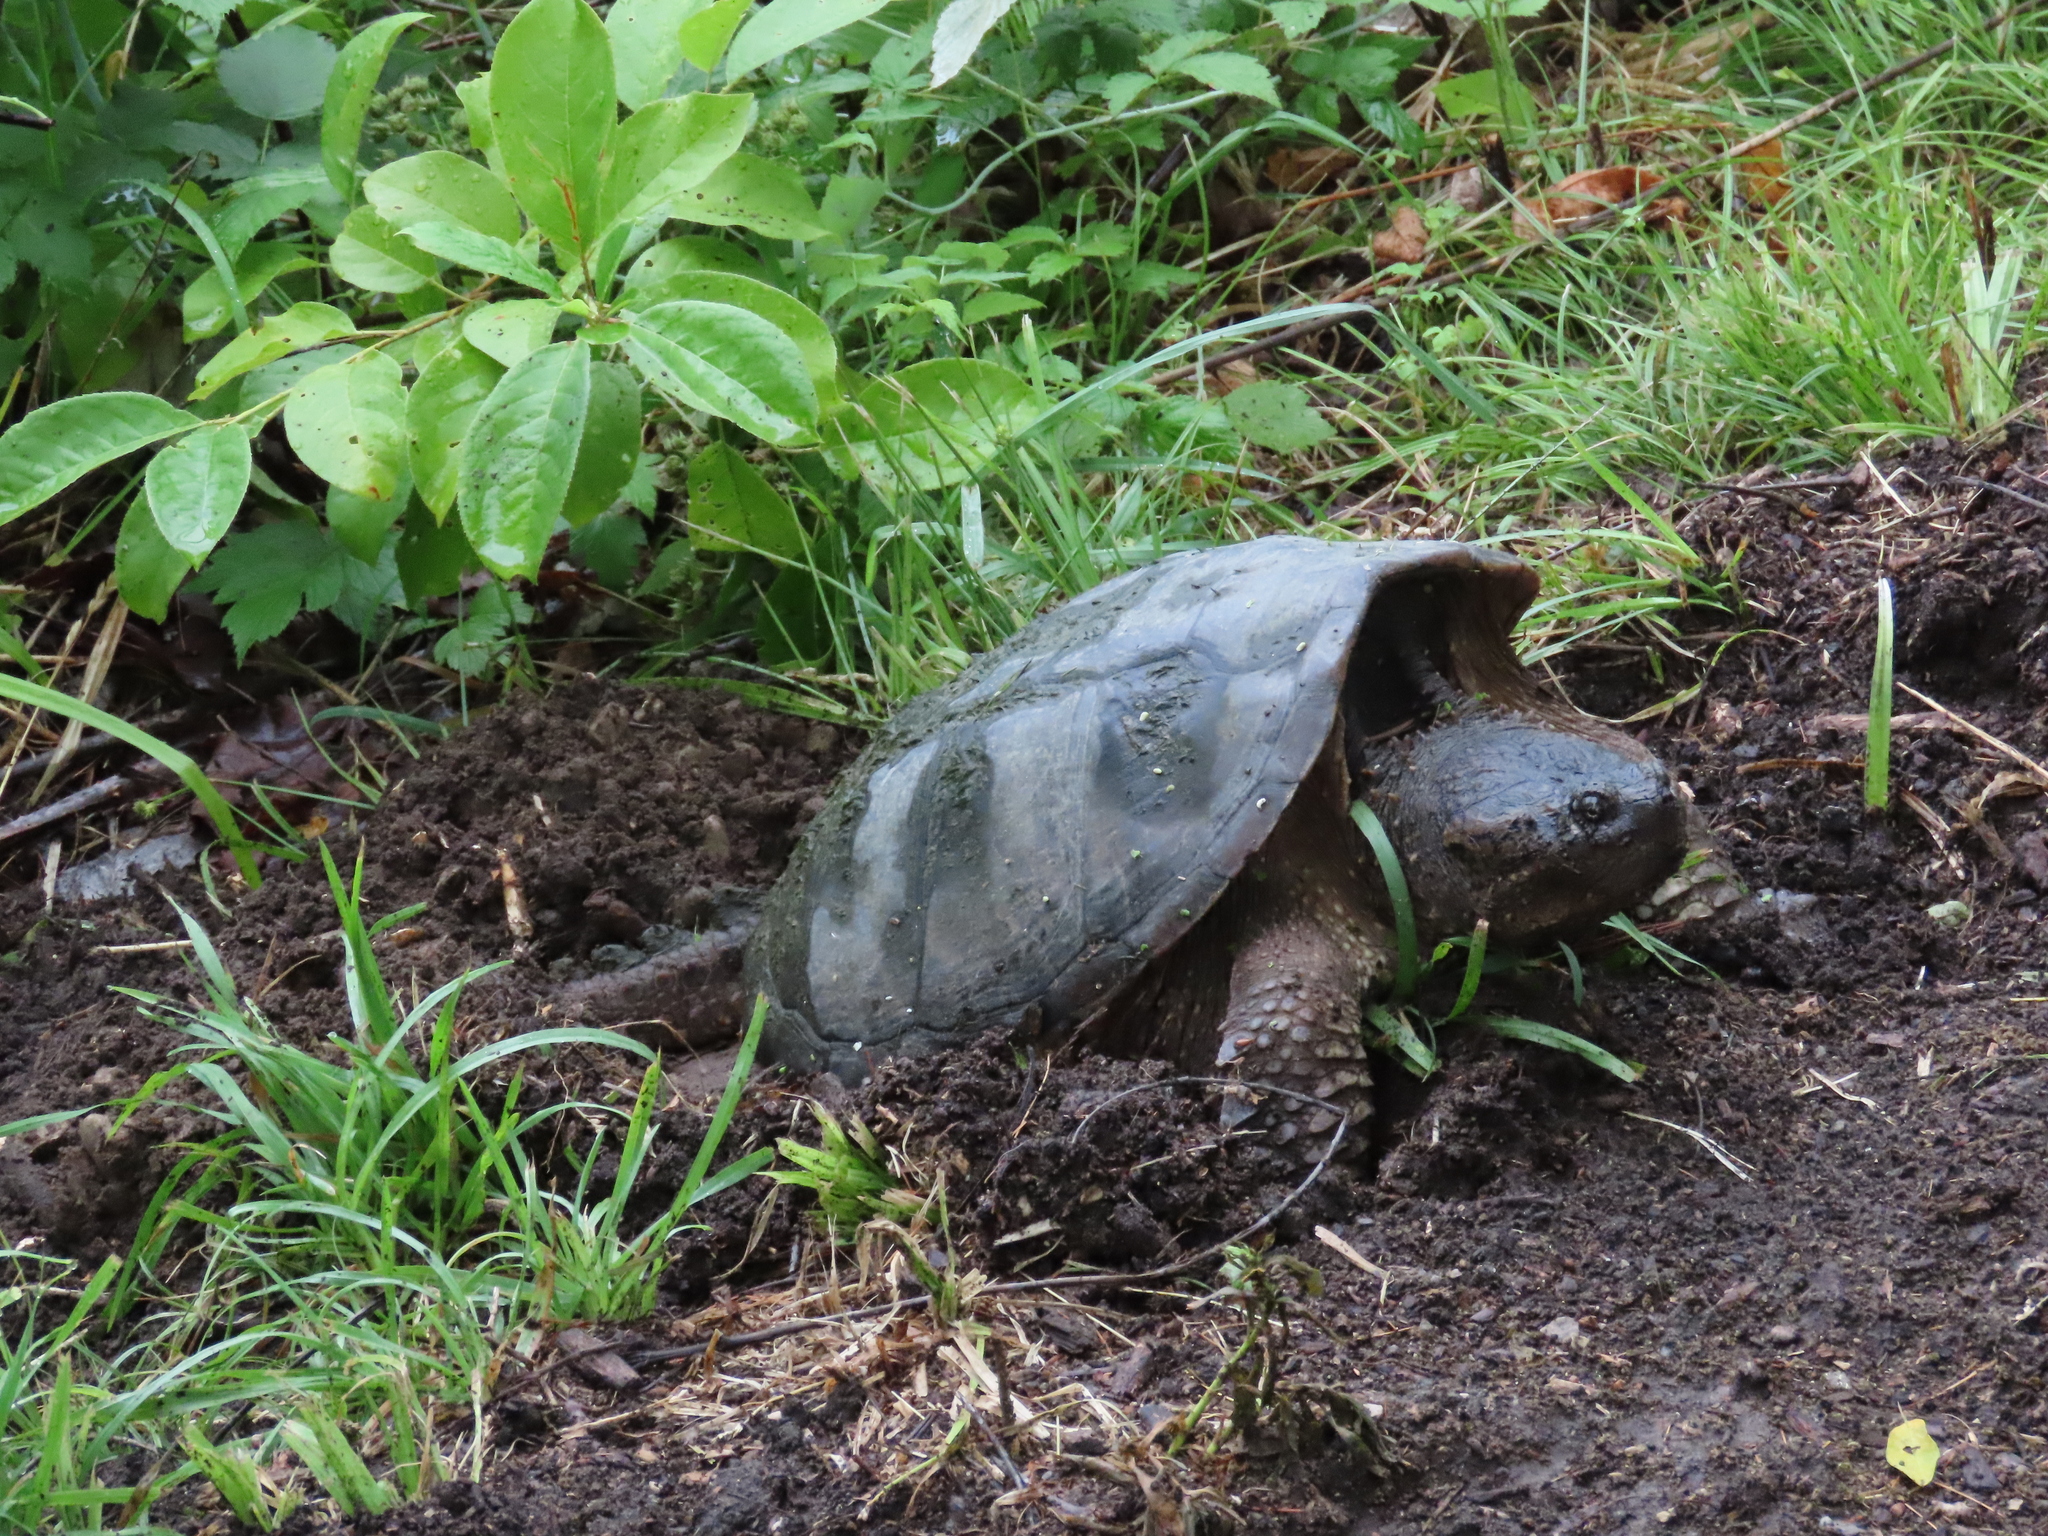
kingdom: Animalia
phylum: Chordata
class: Testudines
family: Chelydridae
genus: Chelydra
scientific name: Chelydra serpentina
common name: Common snapping turtle
